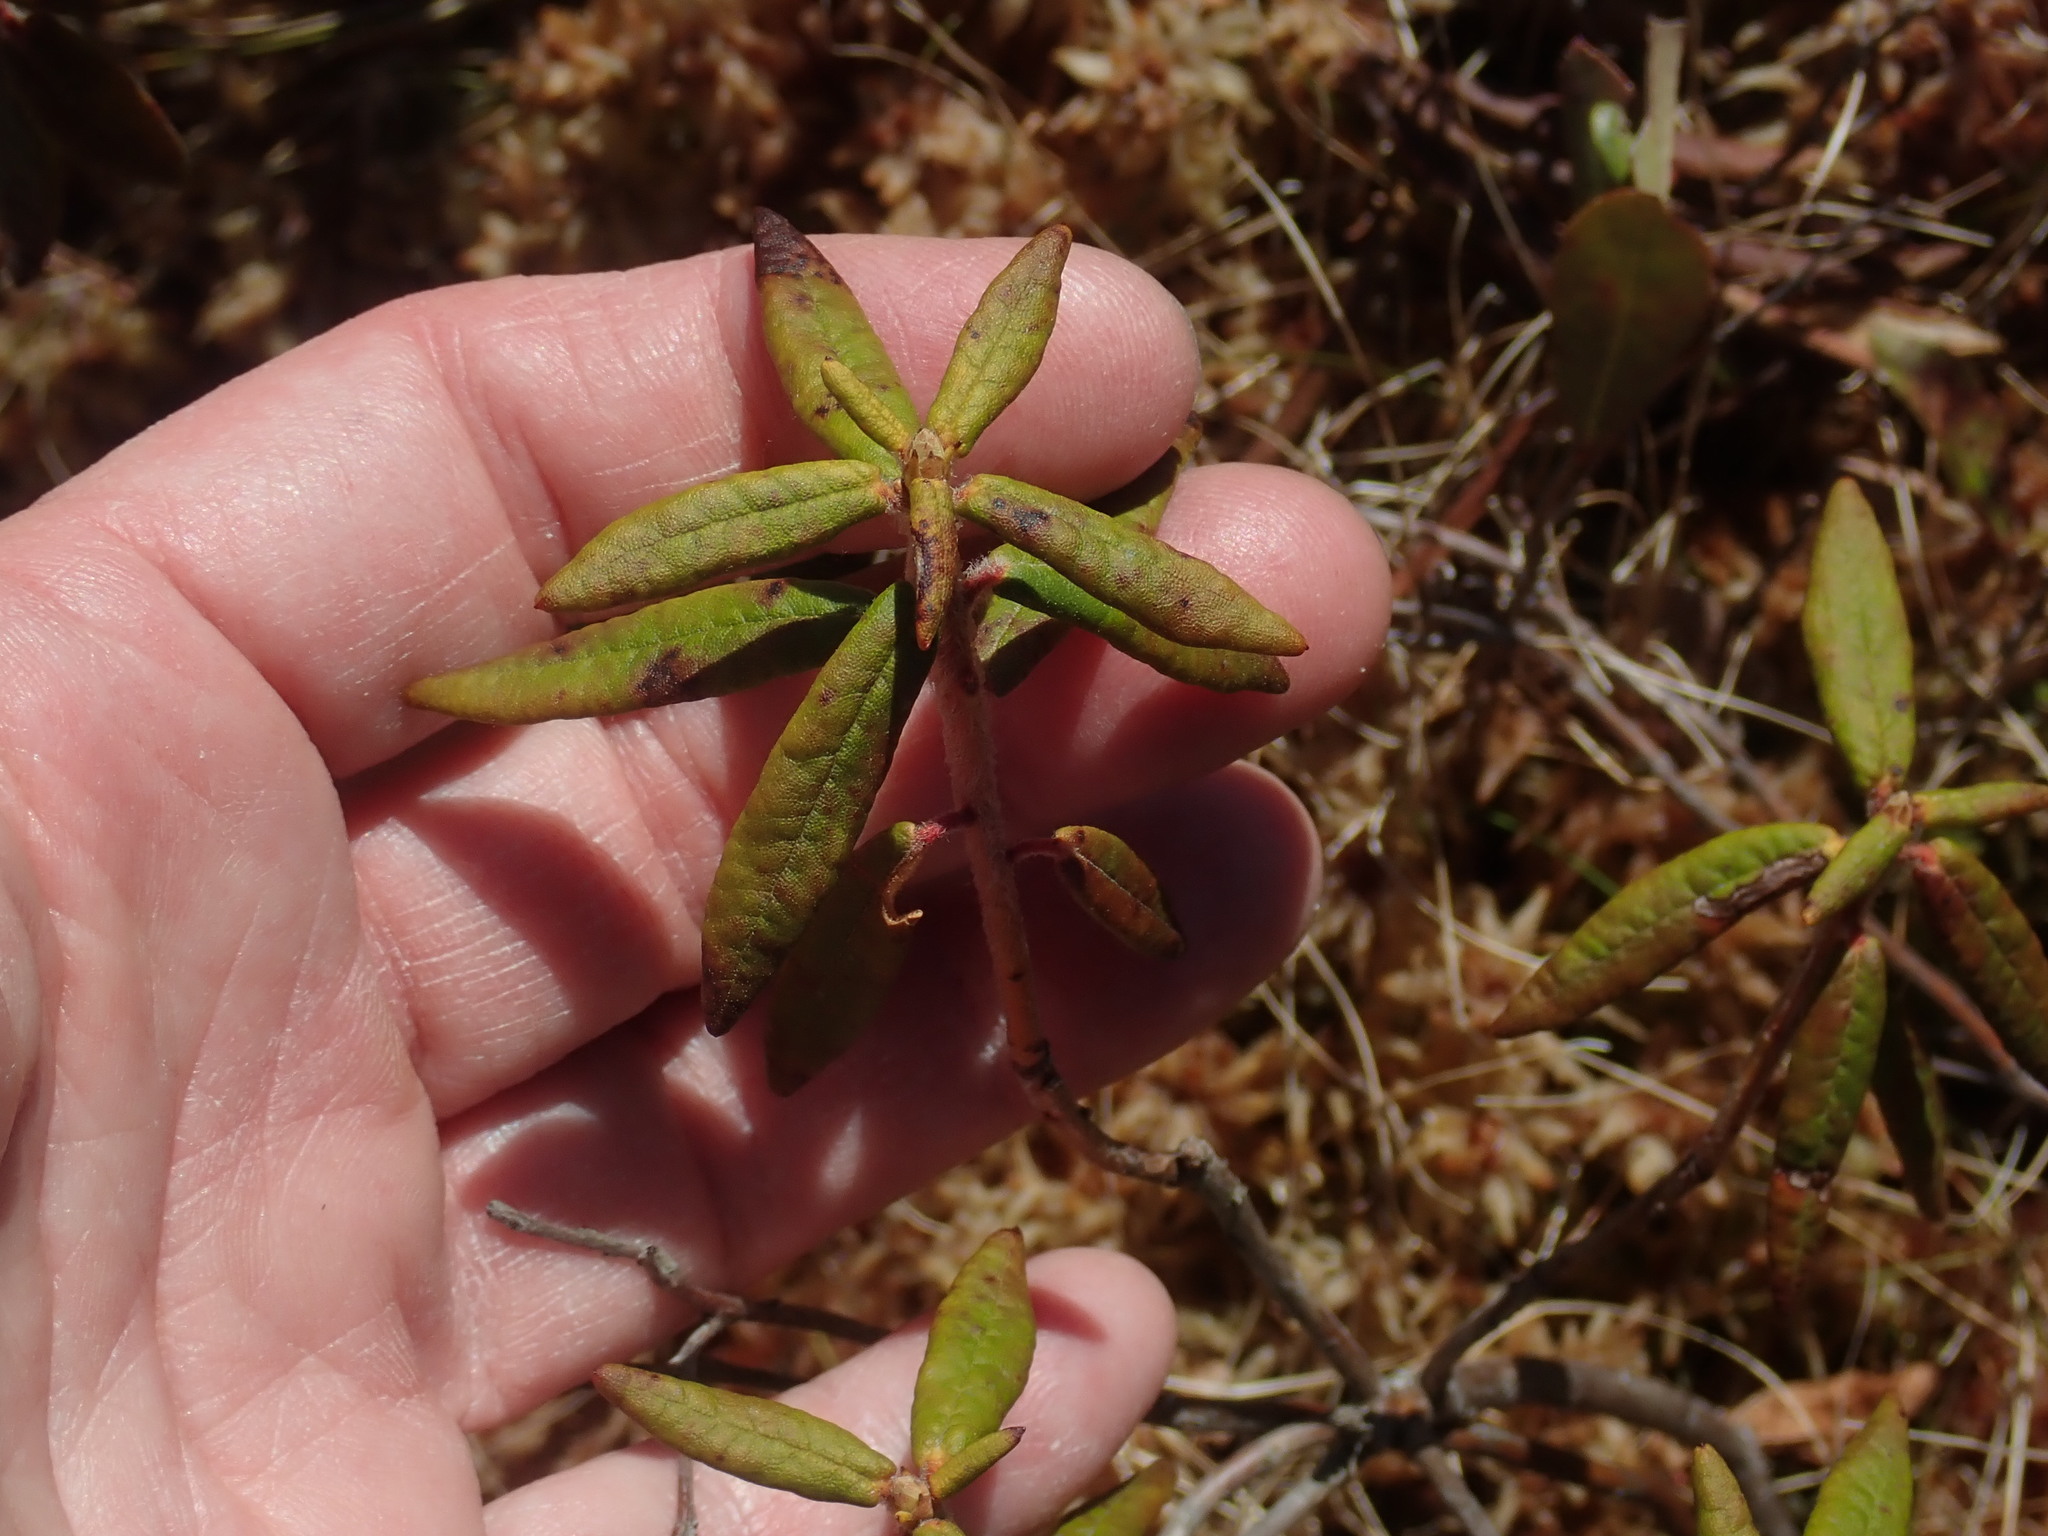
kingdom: Plantae
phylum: Tracheophyta
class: Magnoliopsida
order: Ericales
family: Ericaceae
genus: Rhododendron
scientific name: Rhododendron groenlandicum
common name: Bog labrador tea
